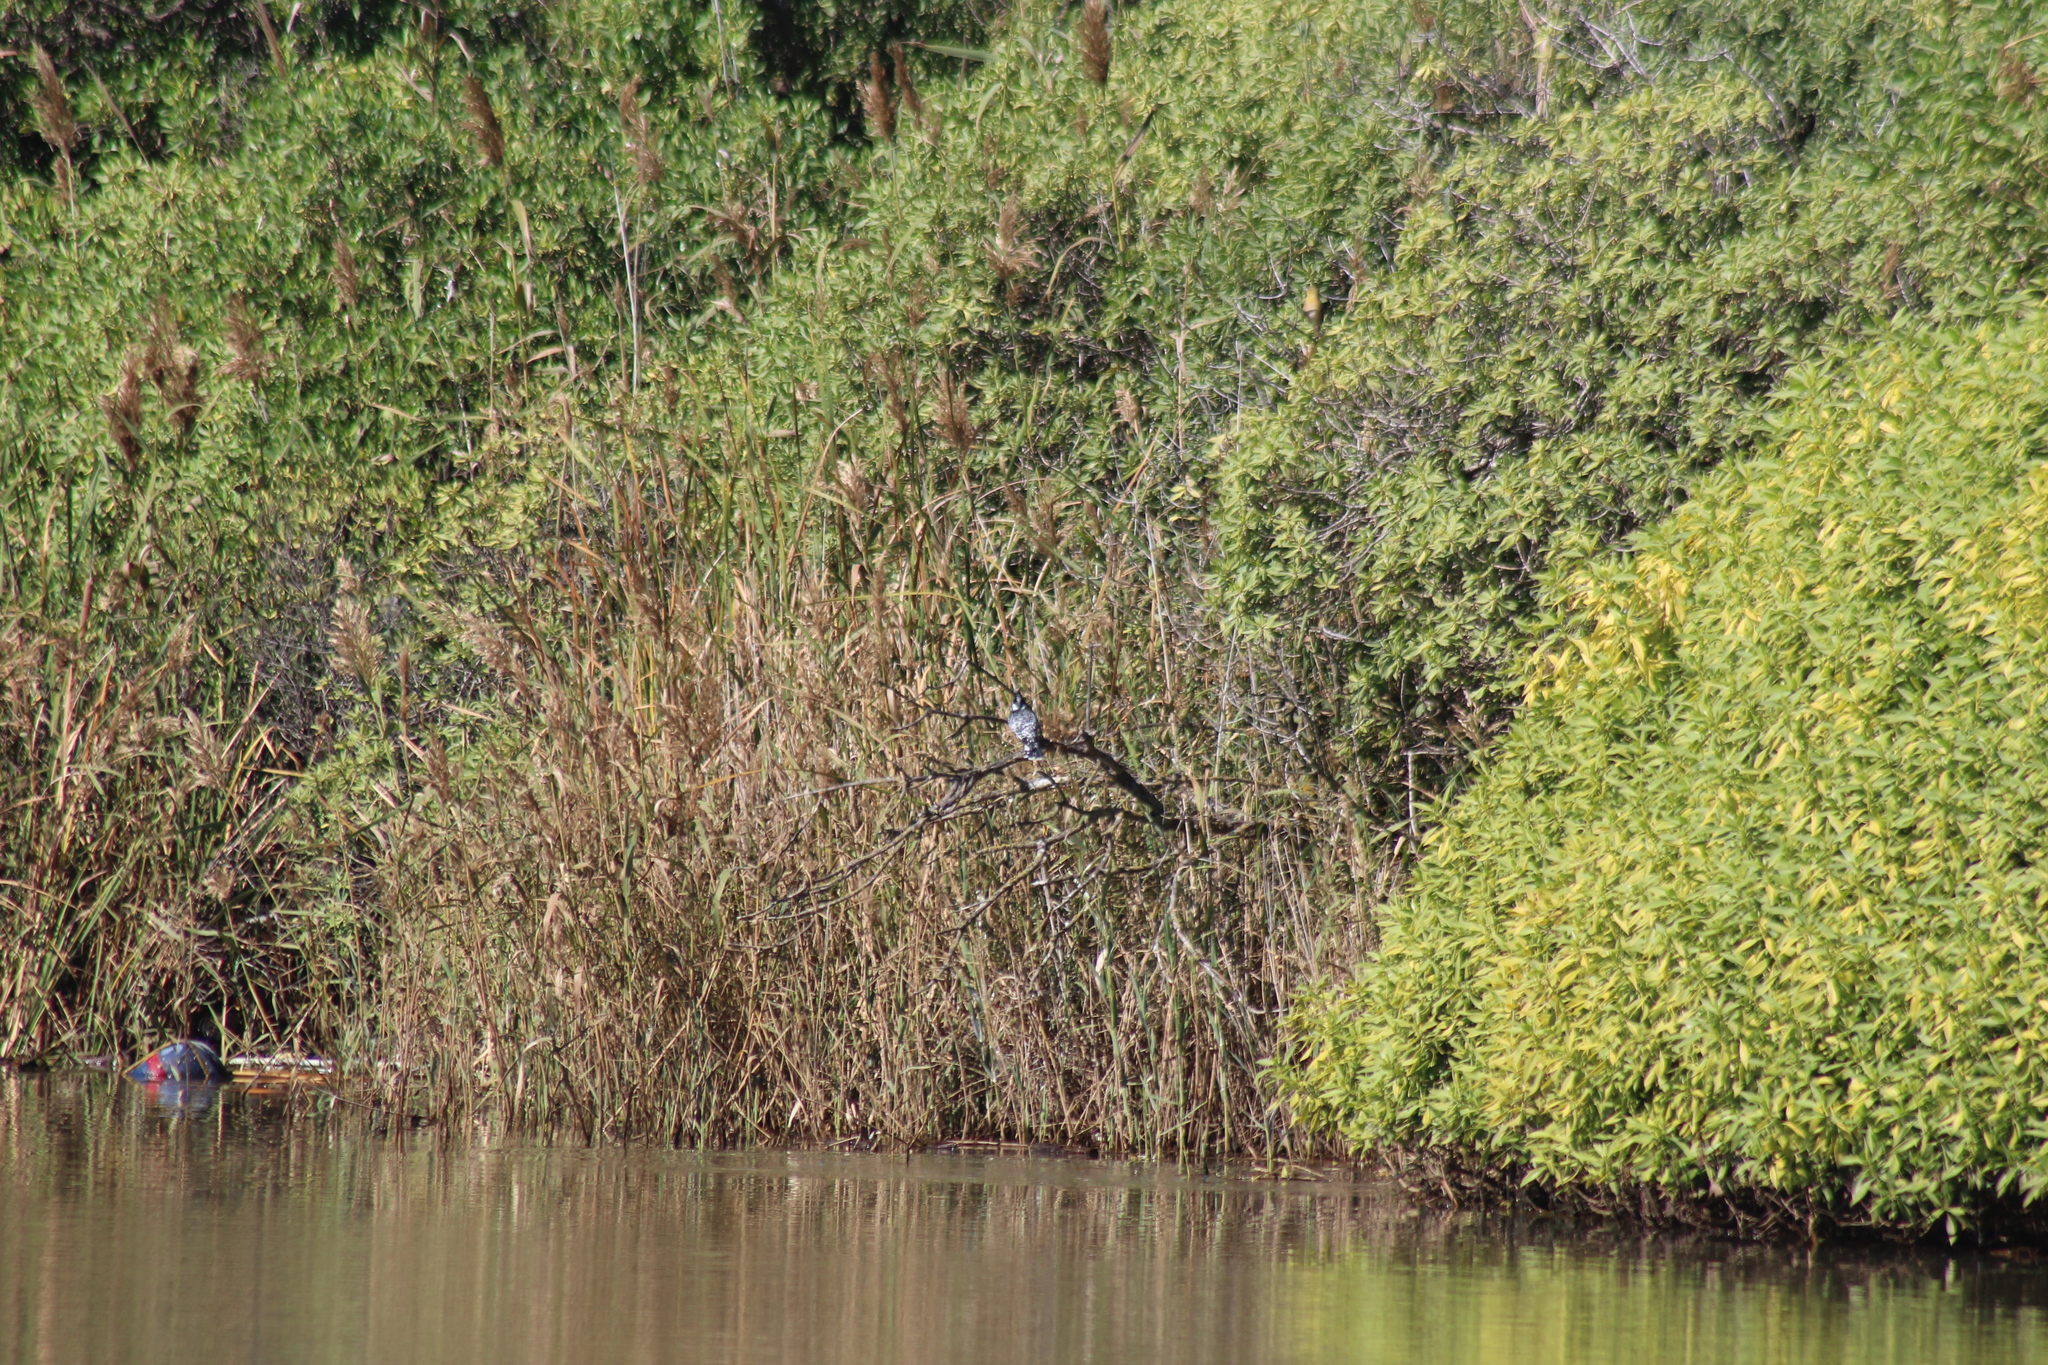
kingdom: Animalia
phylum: Chordata
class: Aves
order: Coraciiformes
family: Alcedinidae
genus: Ceryle
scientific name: Ceryle rudis
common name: Pied kingfisher
